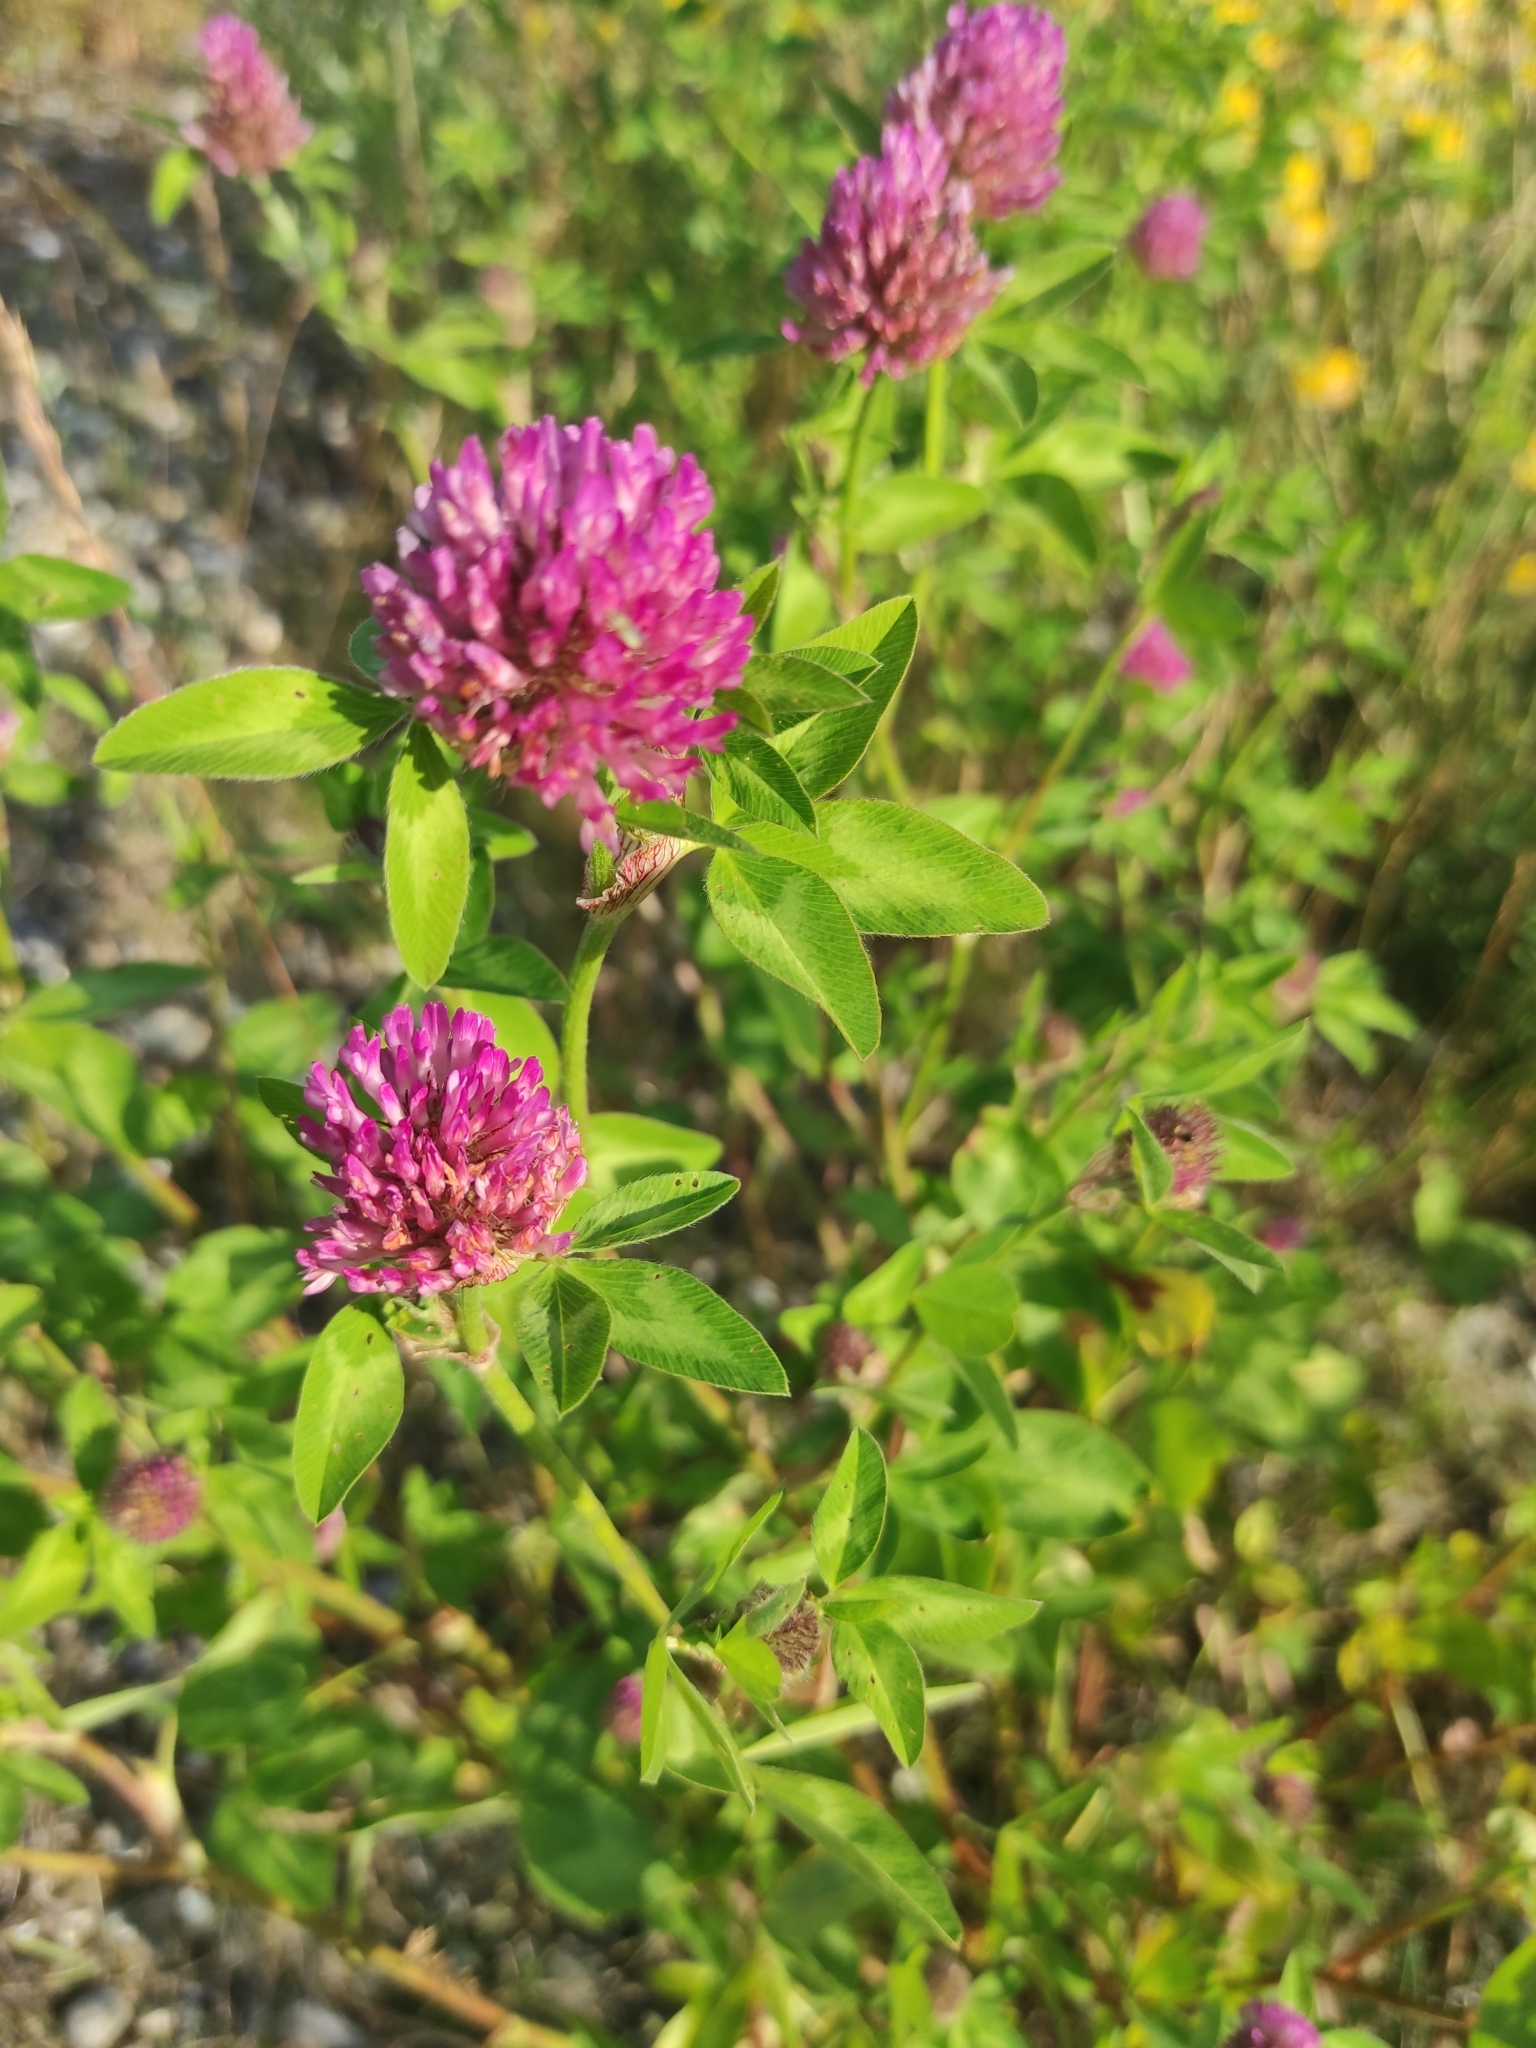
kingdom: Plantae
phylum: Tracheophyta
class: Magnoliopsida
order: Fabales
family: Fabaceae
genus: Trifolium
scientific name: Trifolium pratense
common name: Red clover
